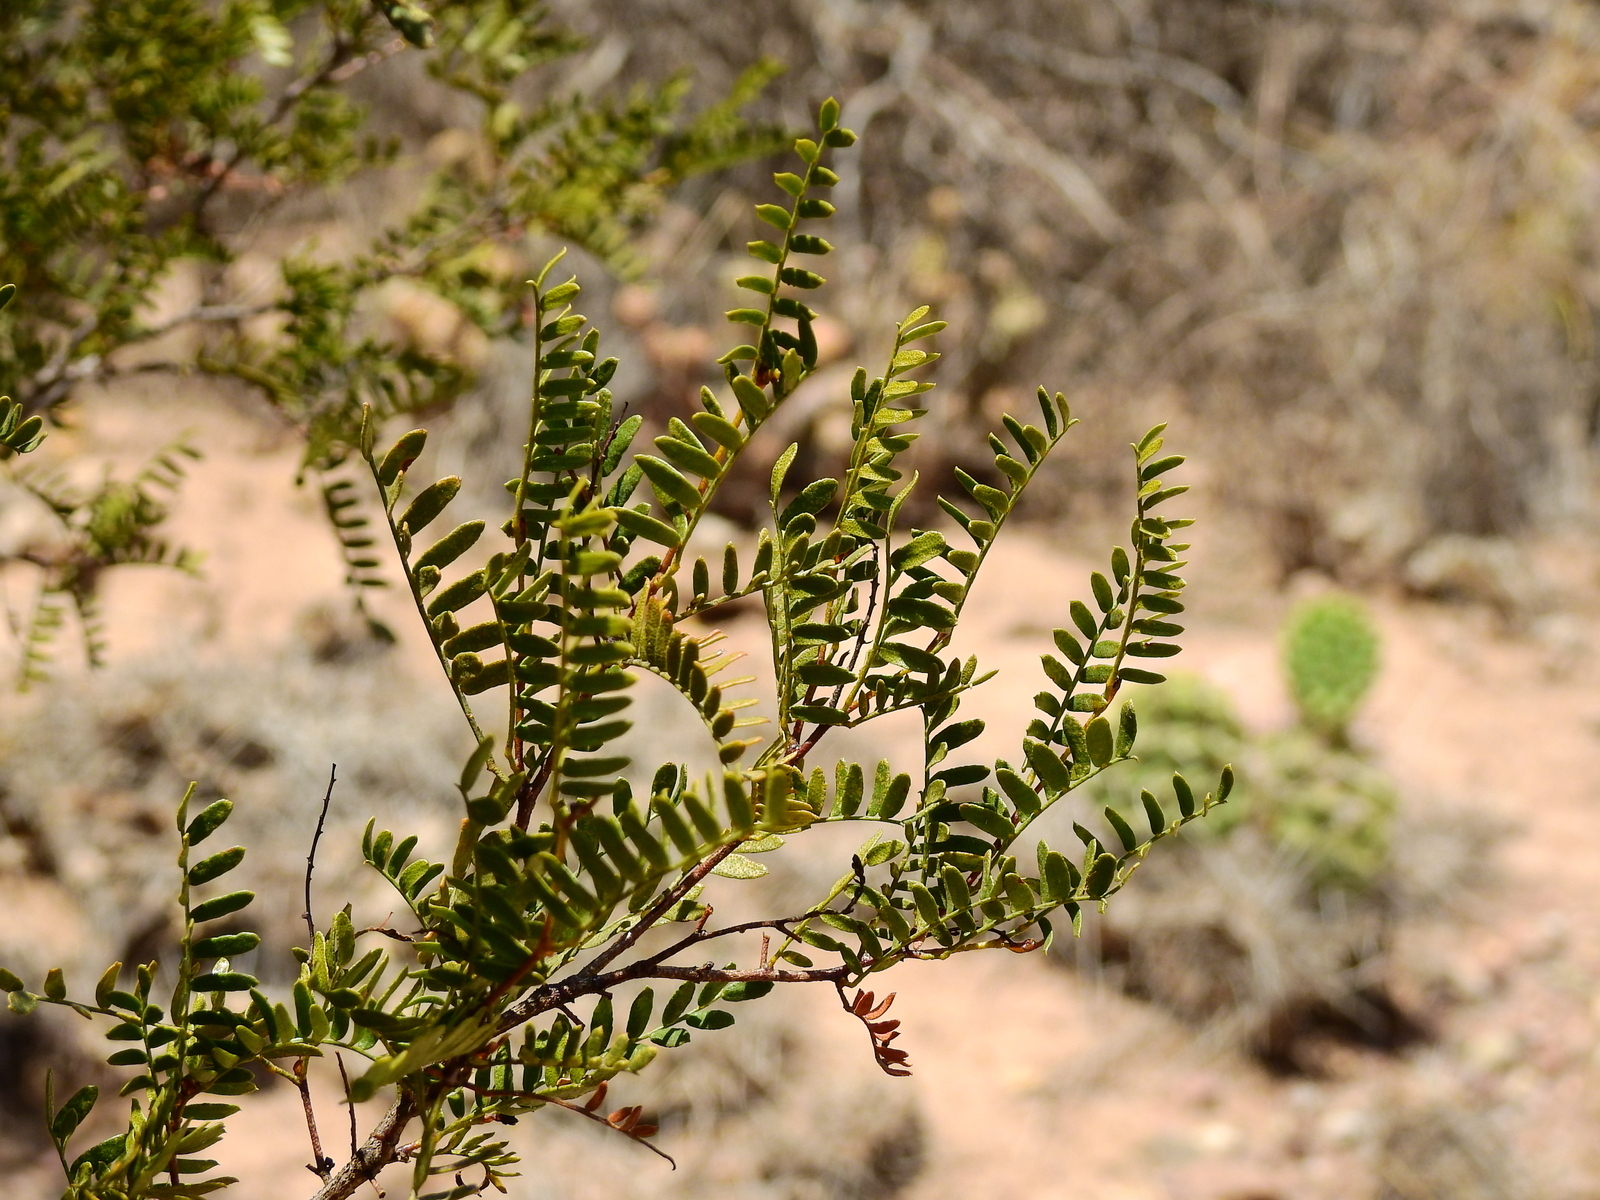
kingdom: Plantae
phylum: Tracheophyta
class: Magnoliopsida
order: Fabales
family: Fabaceae
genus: Zuccagnia
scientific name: Zuccagnia punctata
